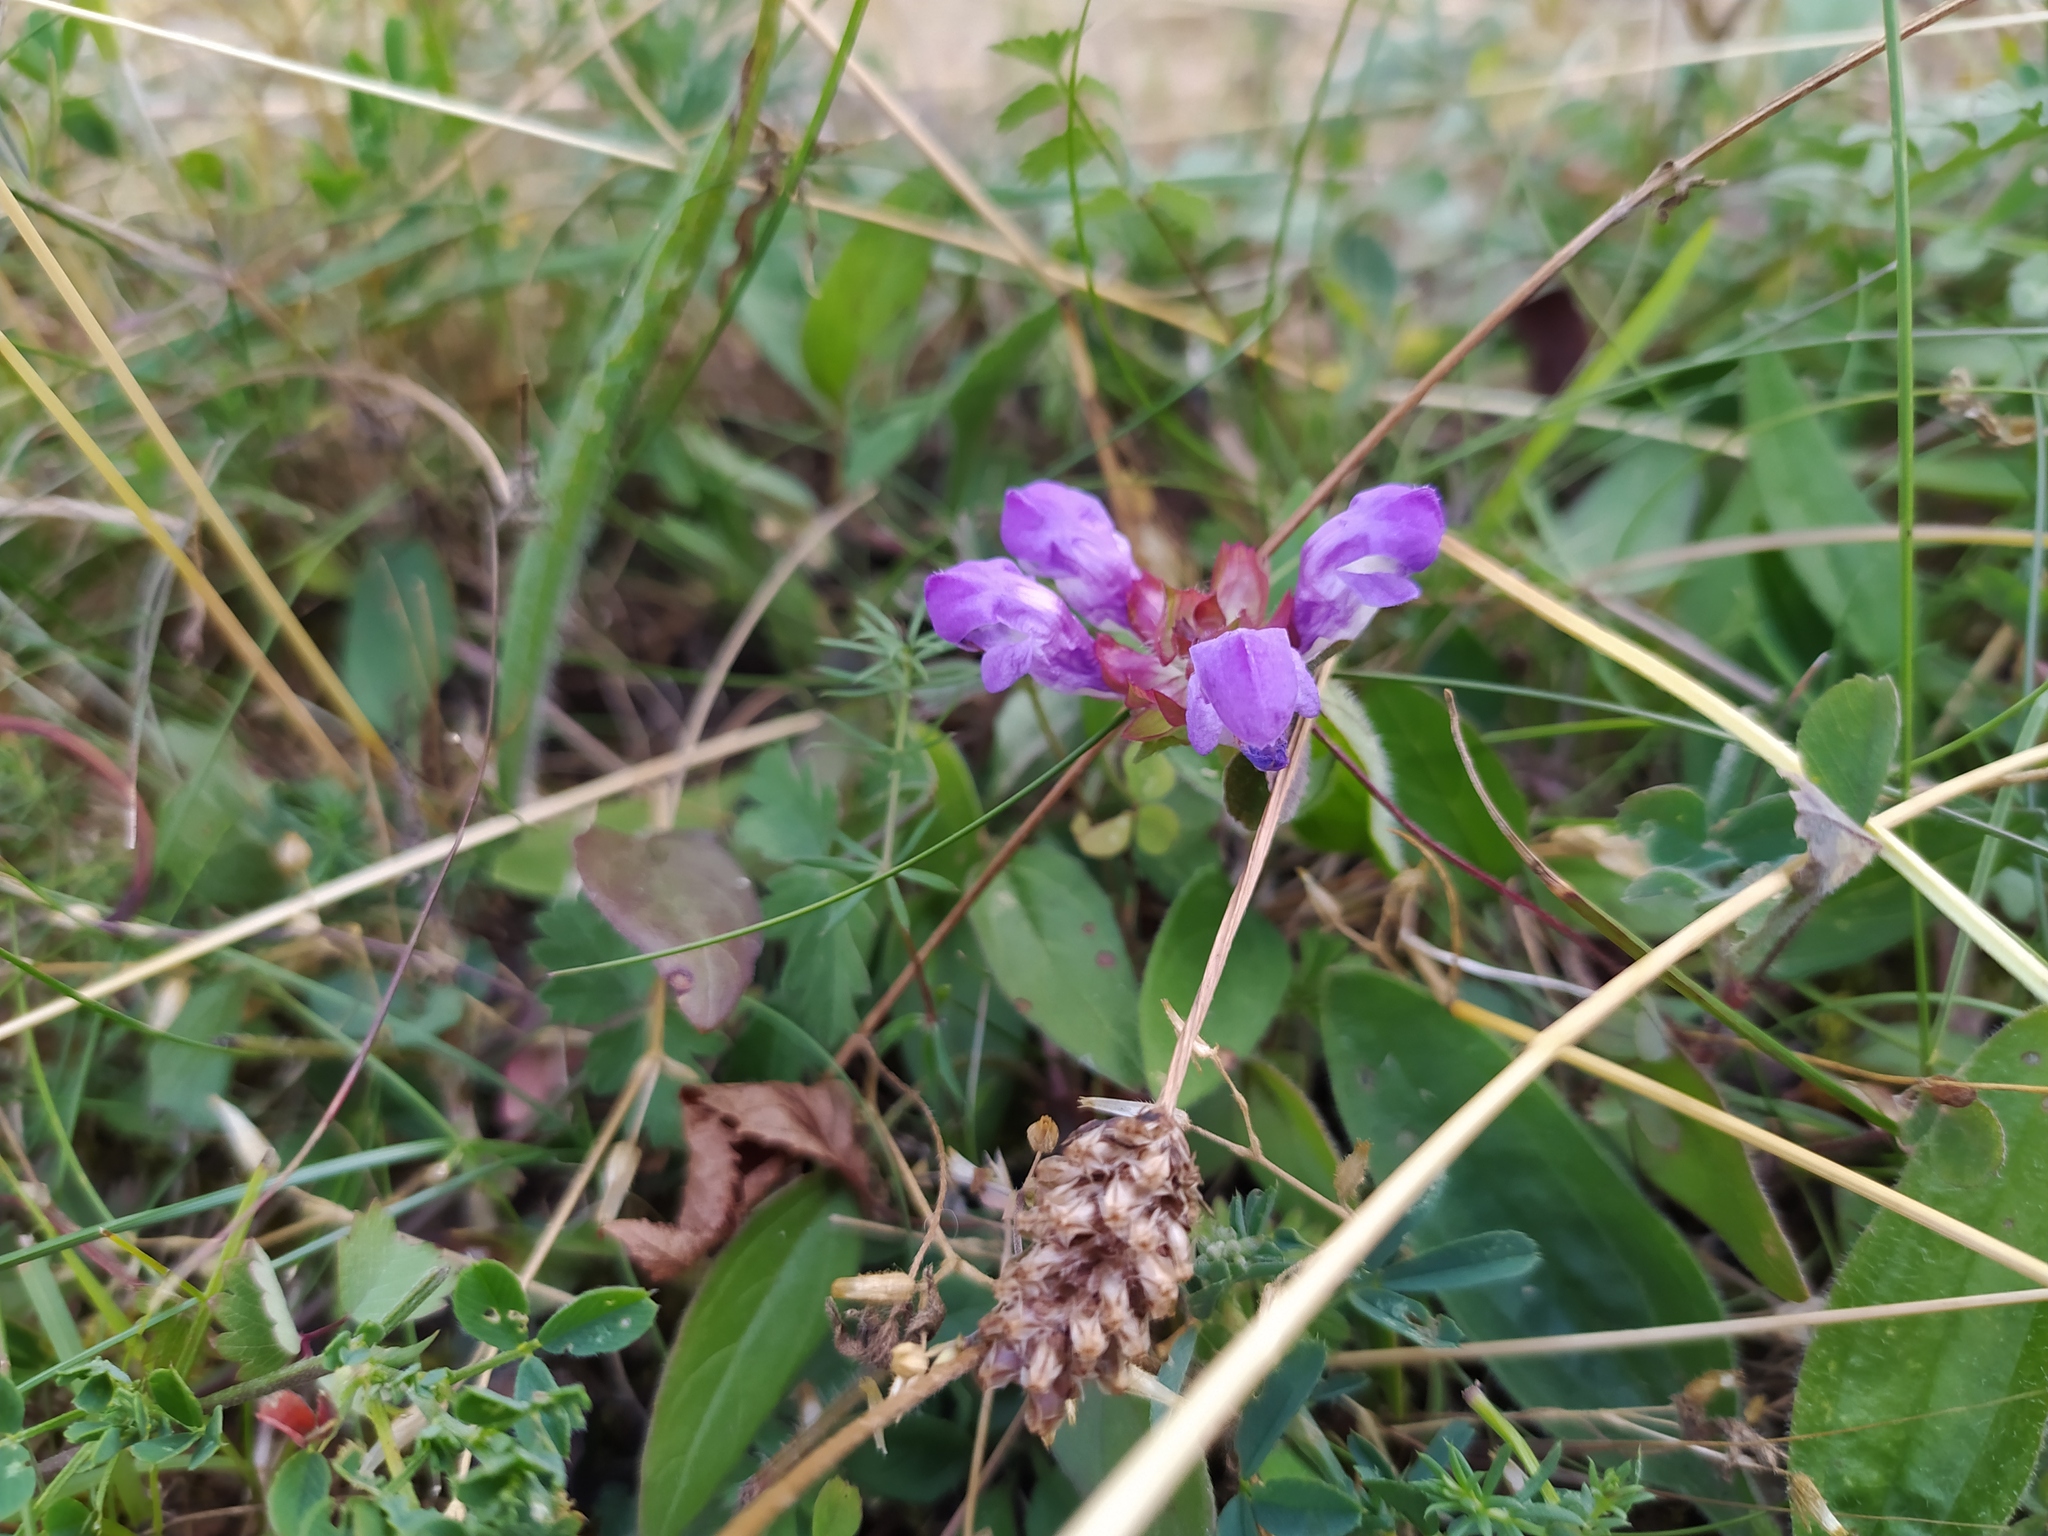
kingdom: Plantae
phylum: Tracheophyta
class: Magnoliopsida
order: Lamiales
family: Lamiaceae
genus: Prunella
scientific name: Prunella grandiflora
